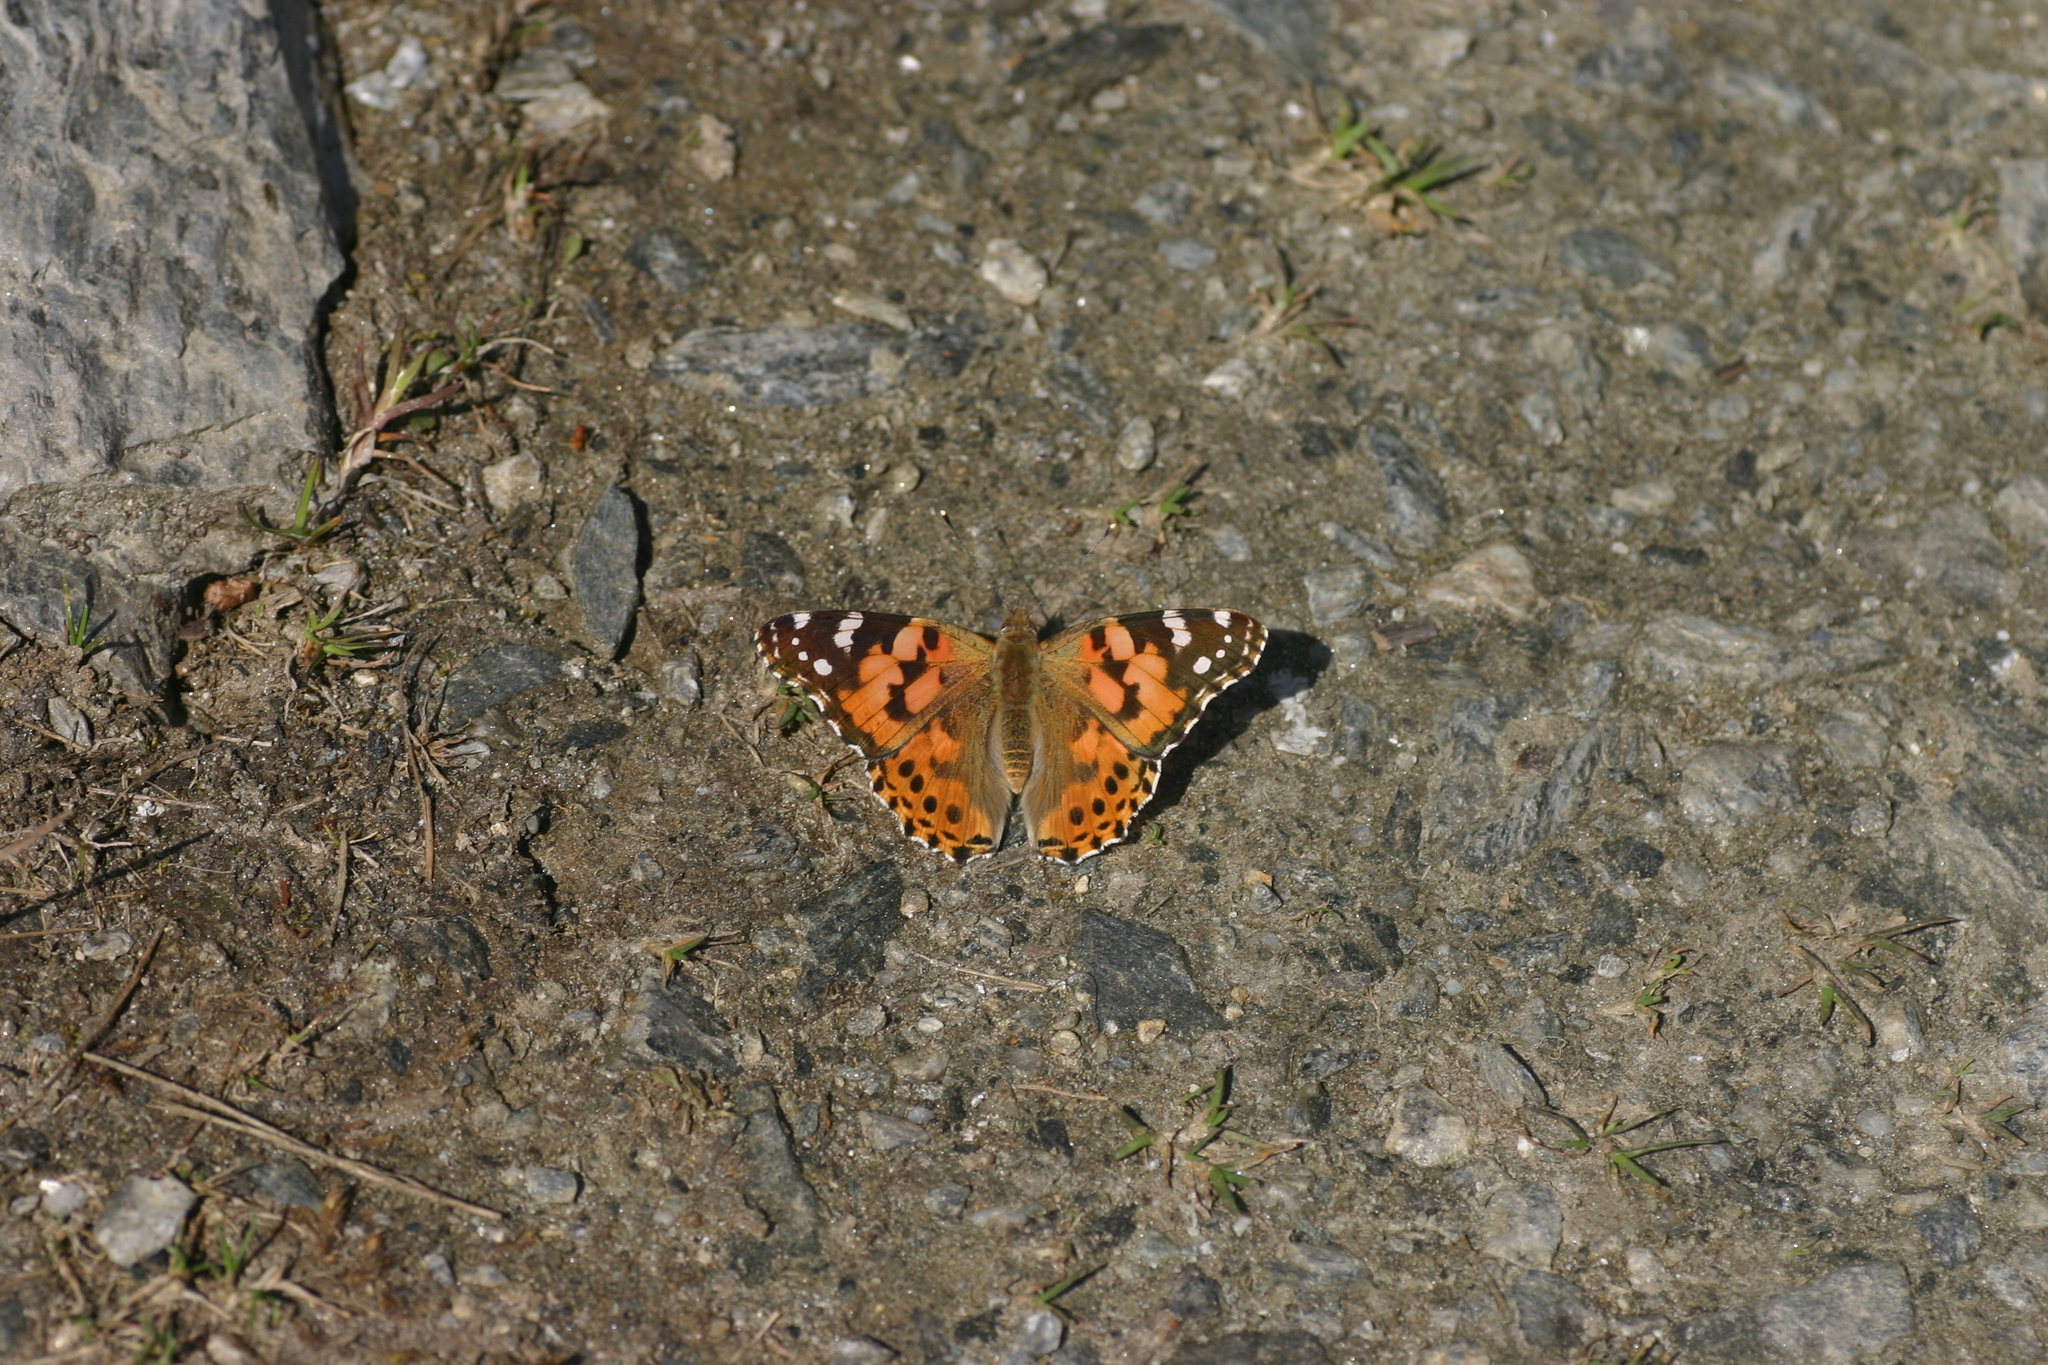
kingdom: Animalia
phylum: Arthropoda
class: Insecta
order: Lepidoptera
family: Nymphalidae
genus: Vanessa
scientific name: Vanessa cardui
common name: Painted lady
